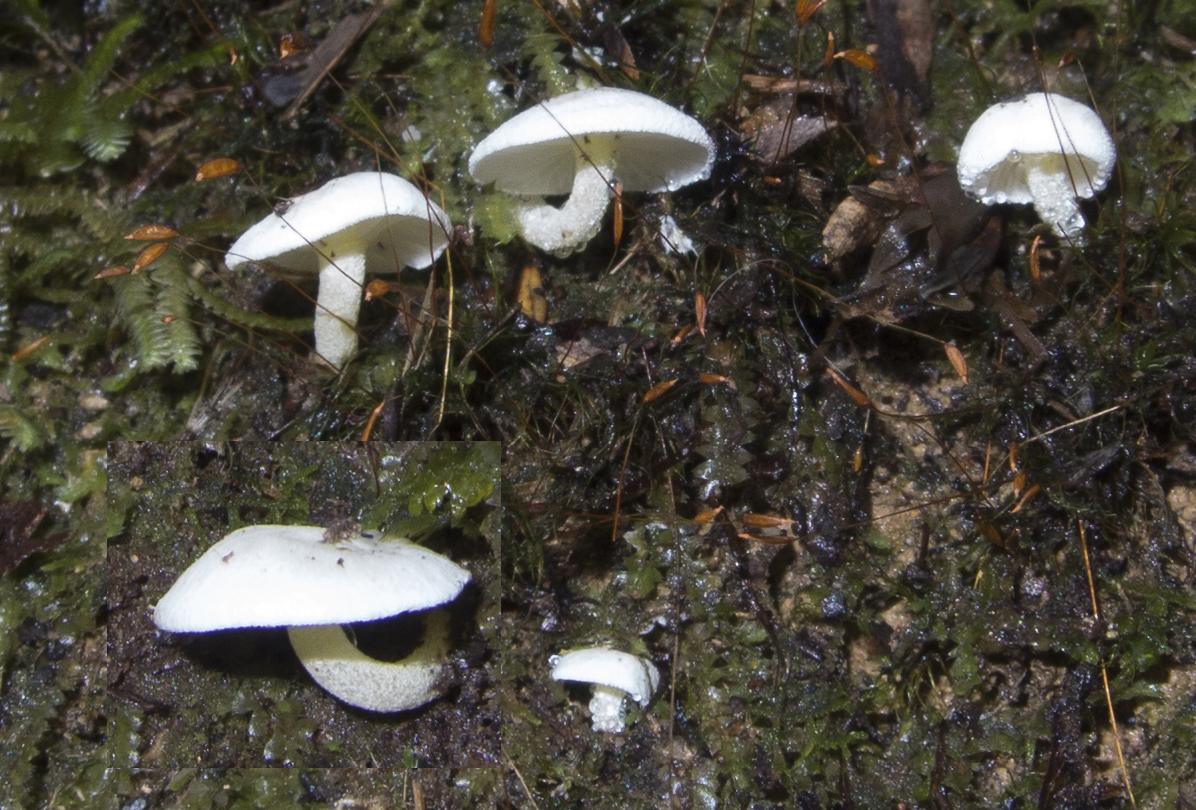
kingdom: Fungi
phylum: Basidiomycota
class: Agaricomycetes
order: Agaricales
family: Hygrophoraceae
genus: Hygrophorus
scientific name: Hygrophorus involutus
